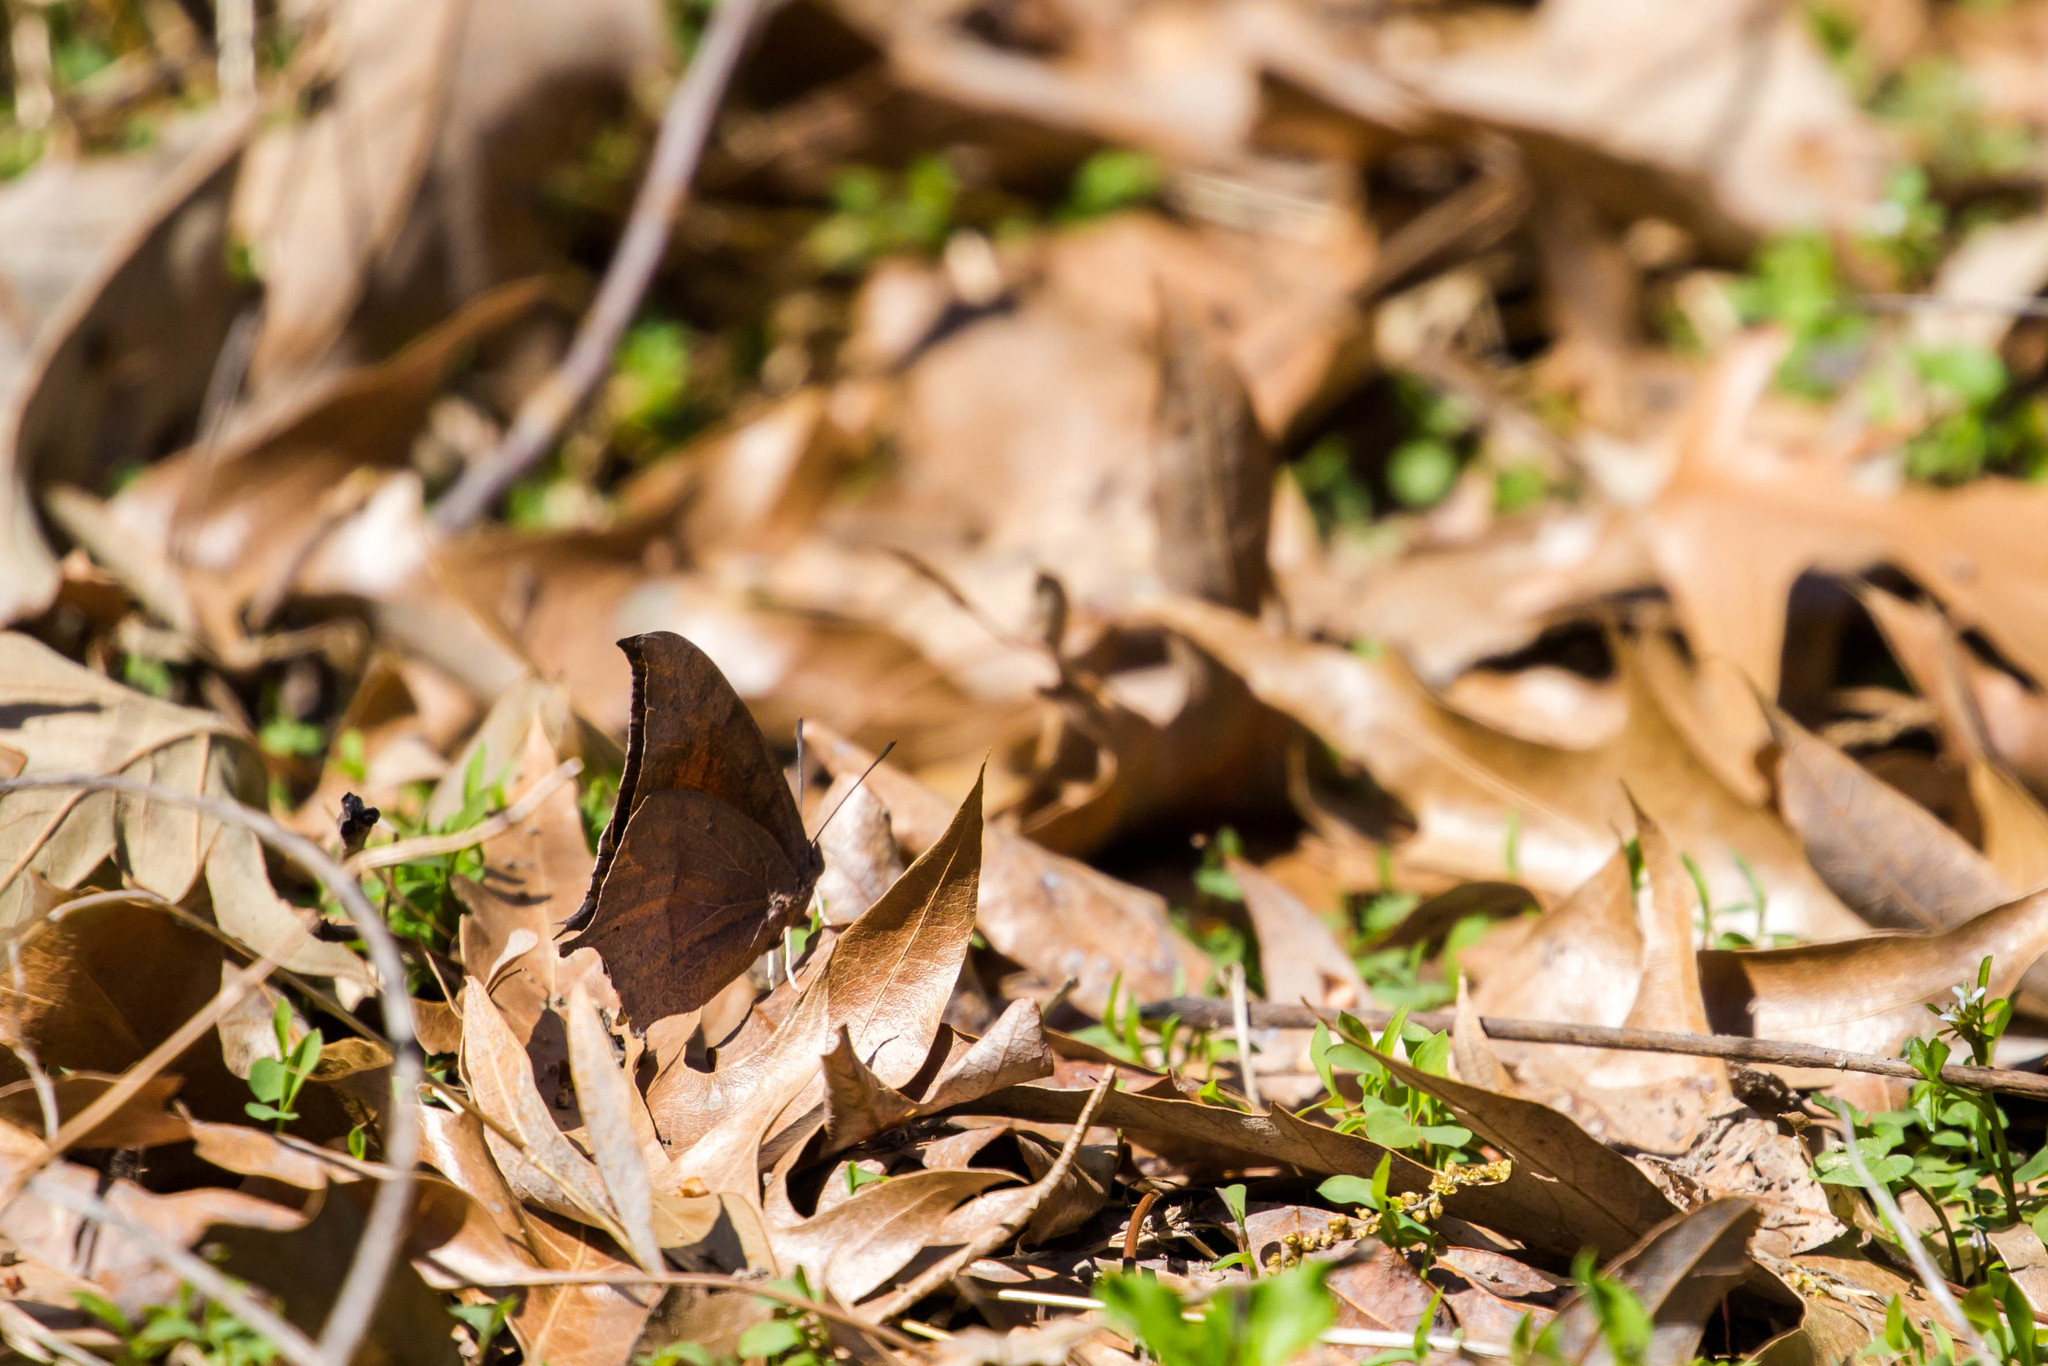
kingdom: Animalia
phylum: Arthropoda
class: Insecta
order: Lepidoptera
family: Nymphalidae
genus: Anaea
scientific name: Anaea andria
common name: Goatweed leafwing
